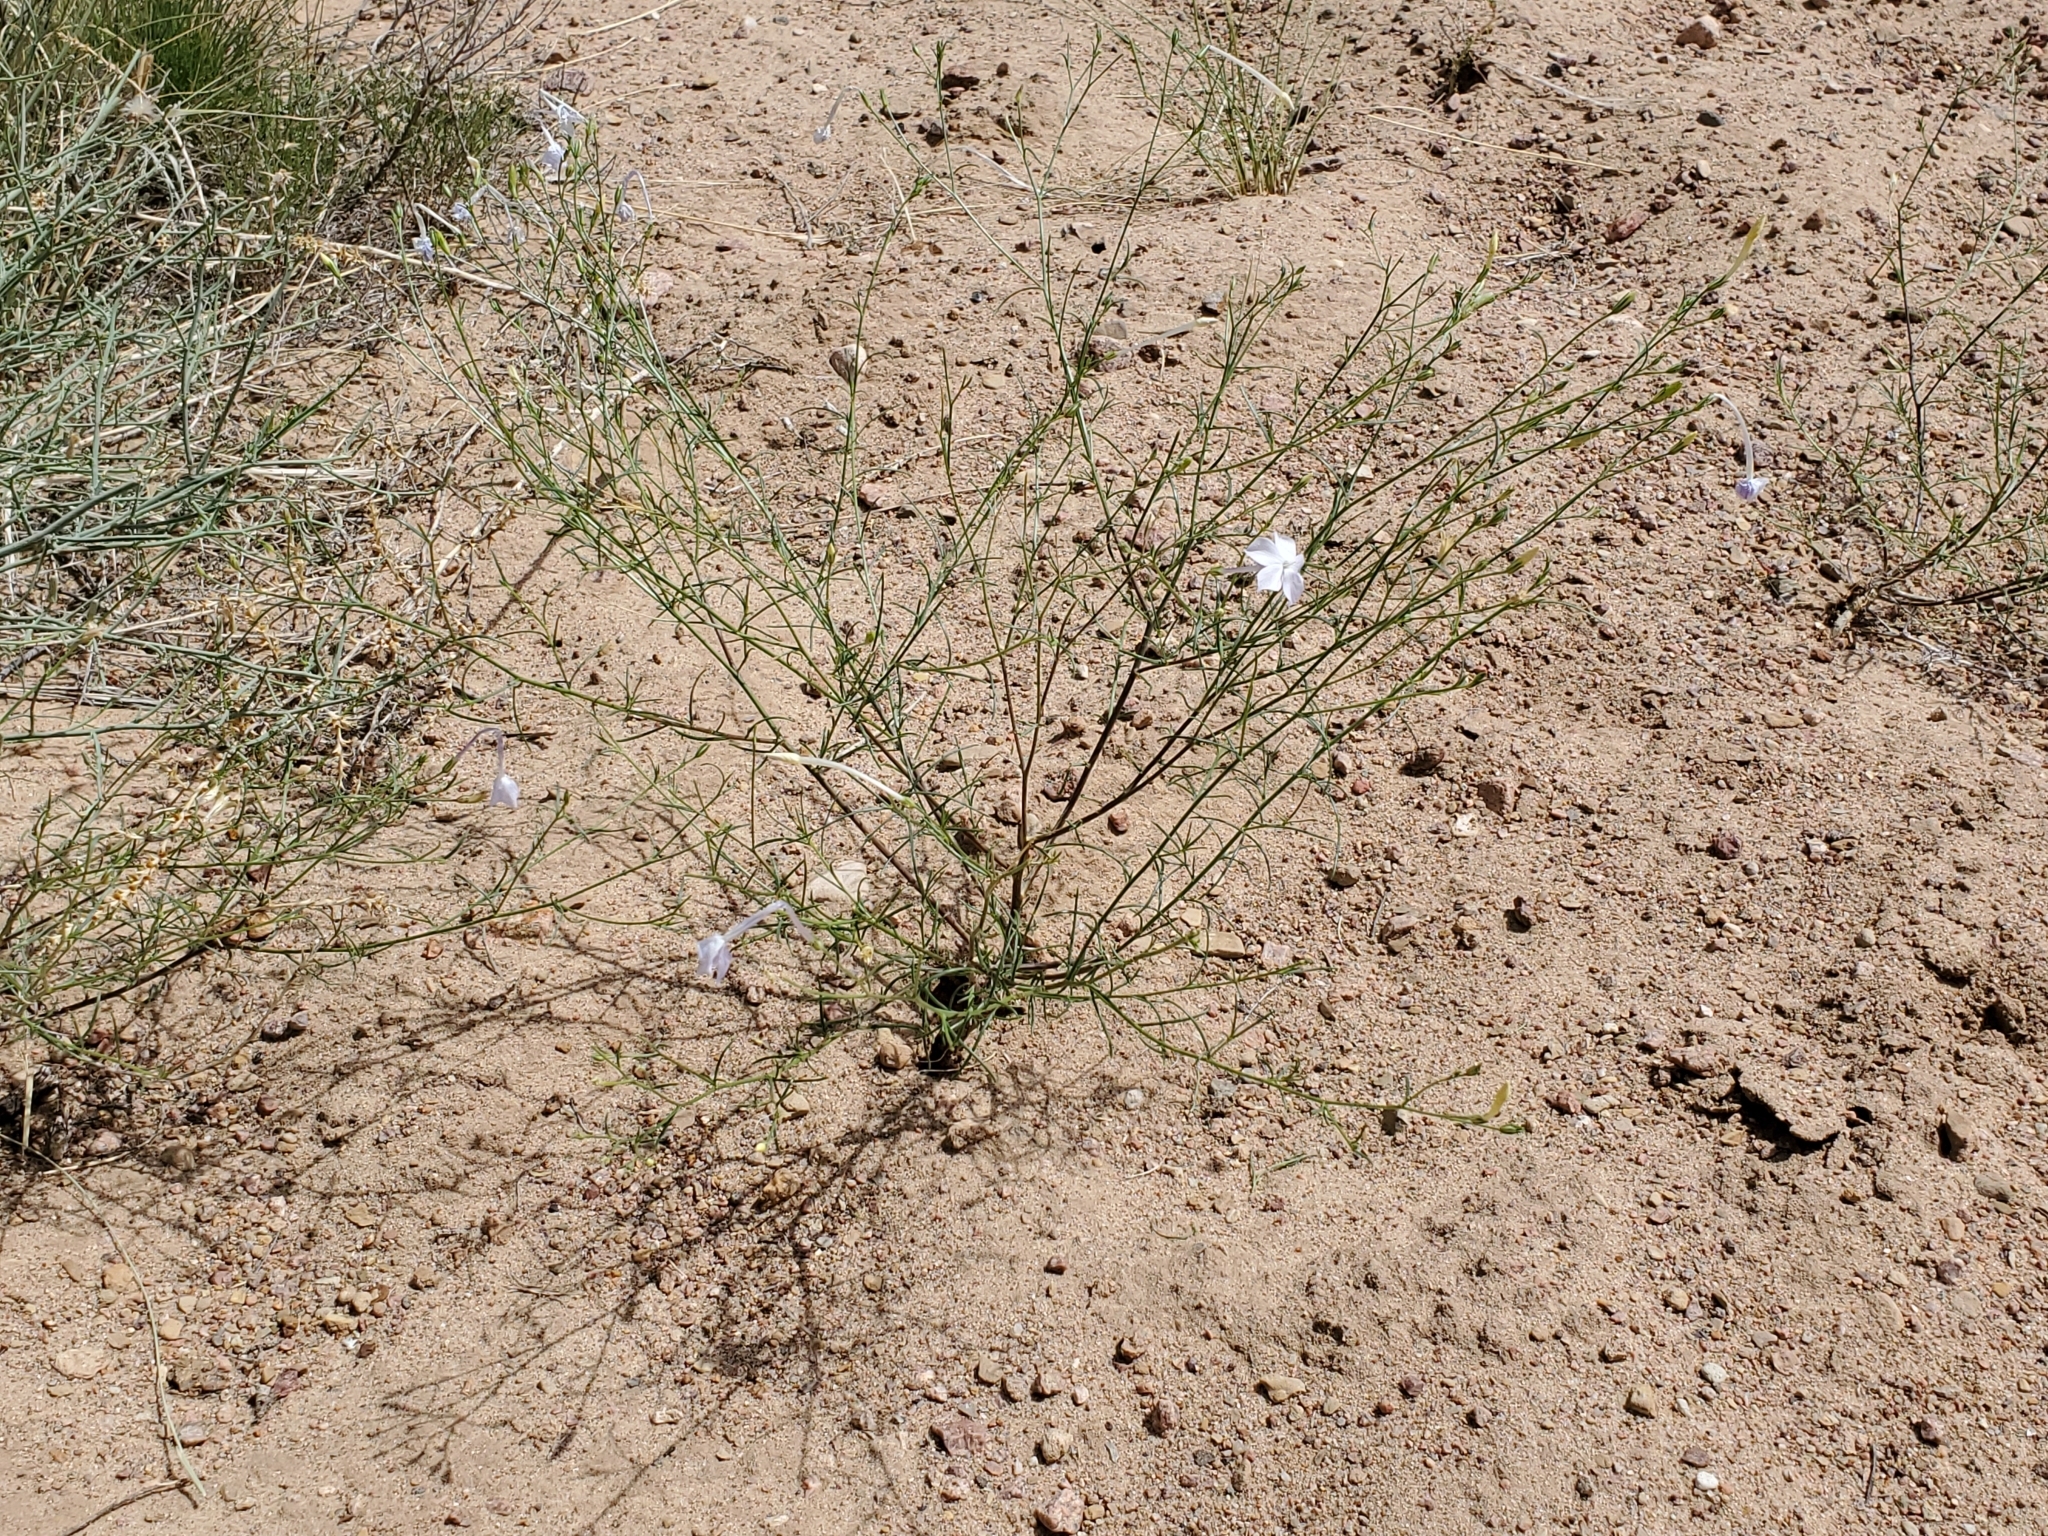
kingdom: Plantae
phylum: Tracheophyta
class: Magnoliopsida
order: Ericales
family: Polemoniaceae
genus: Ipomopsis
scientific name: Ipomopsis longiflora
